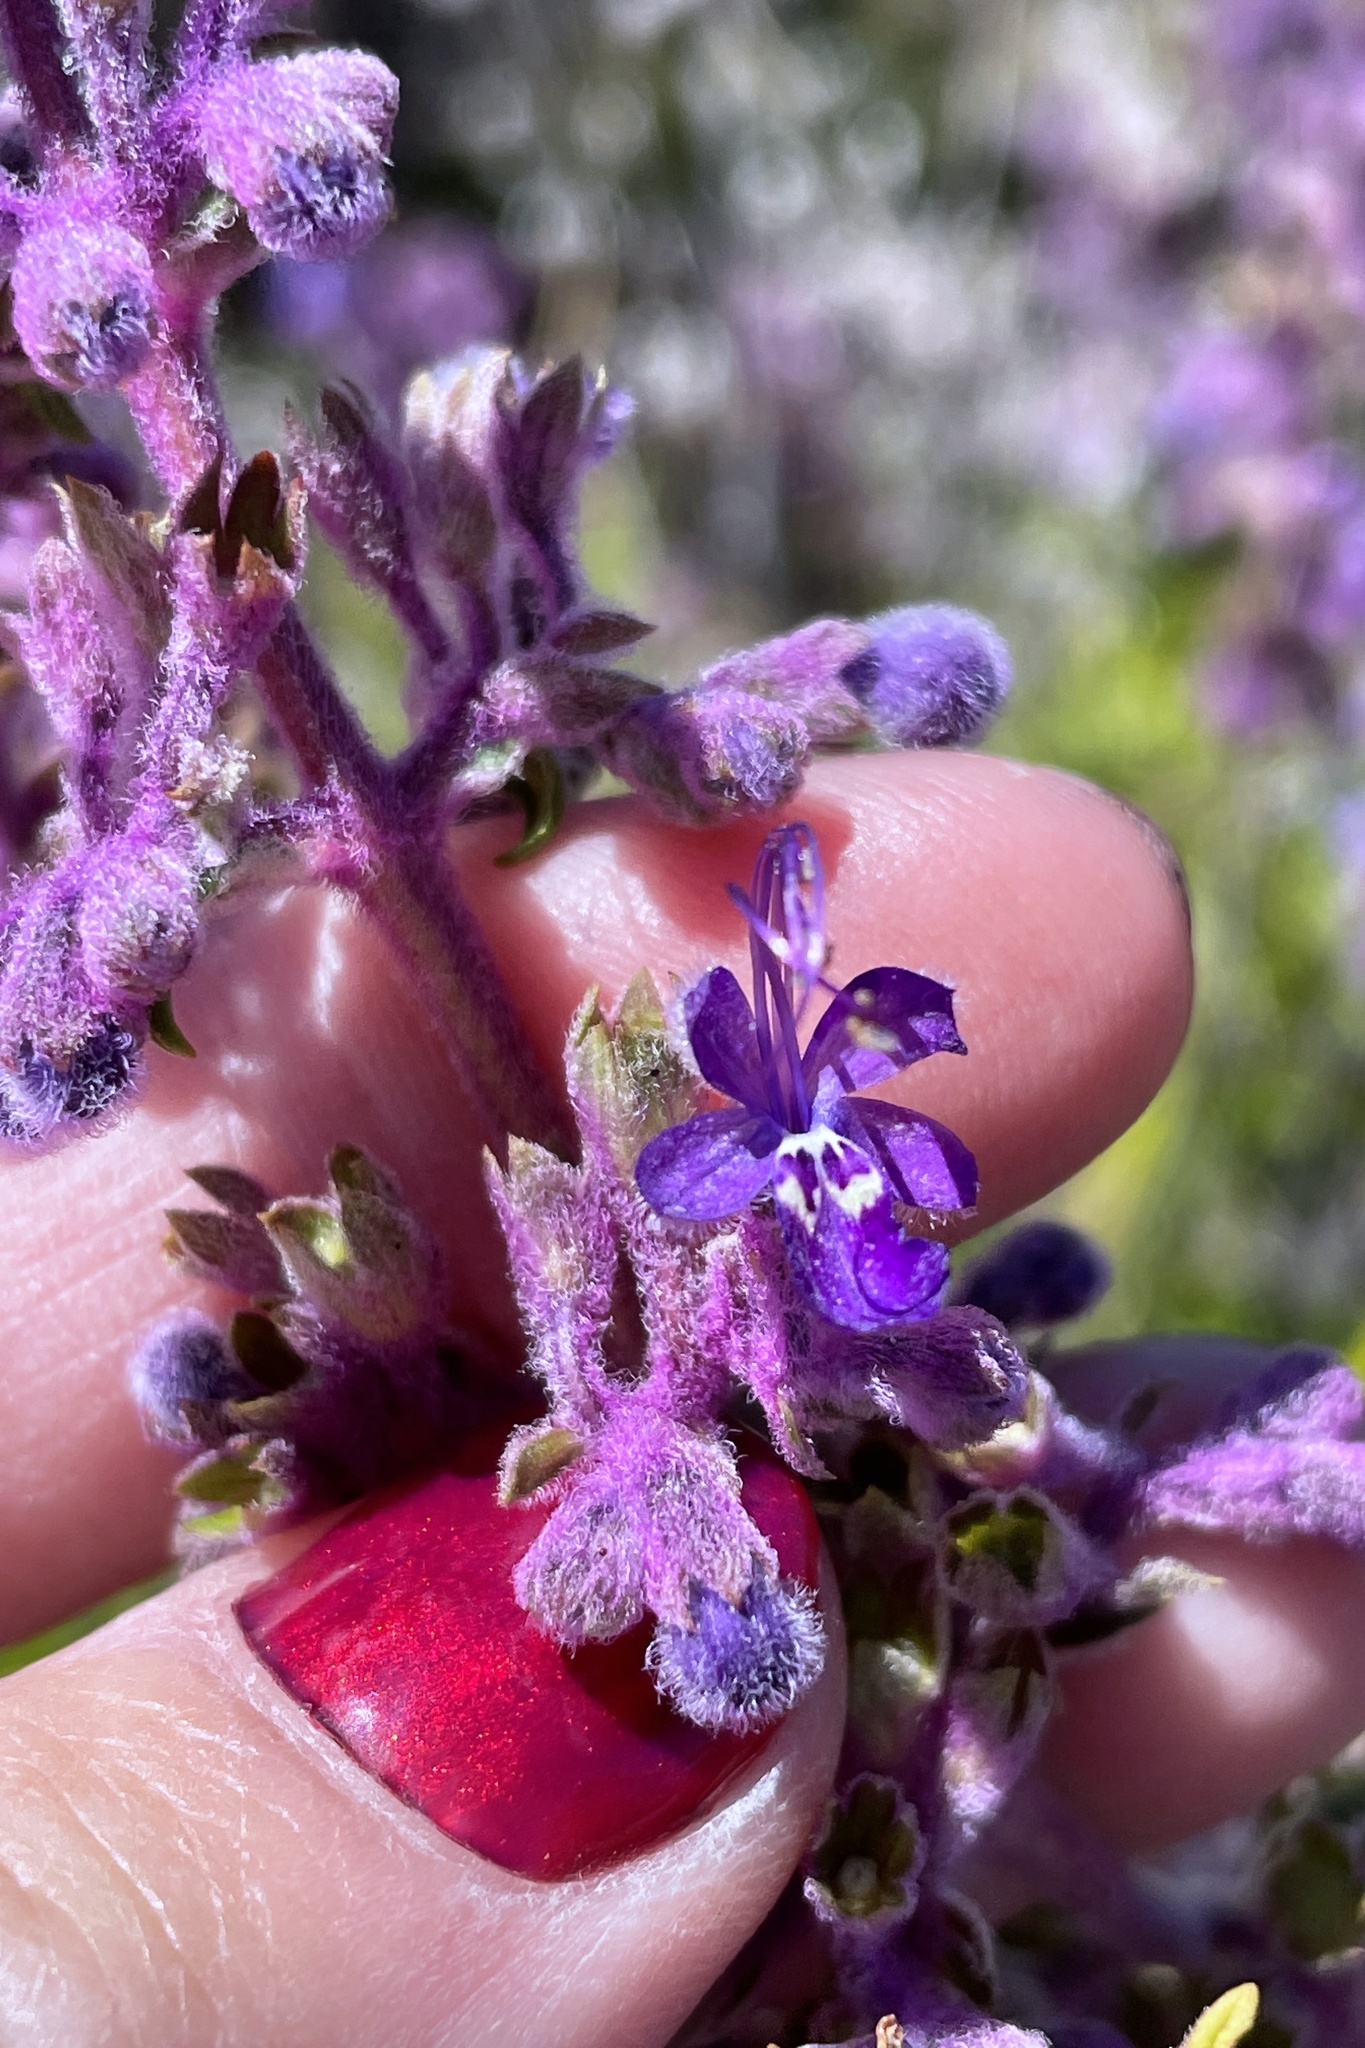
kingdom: Plantae
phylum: Tracheophyta
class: Magnoliopsida
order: Lamiales
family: Lamiaceae
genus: Trichostema
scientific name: Trichostema parishii
